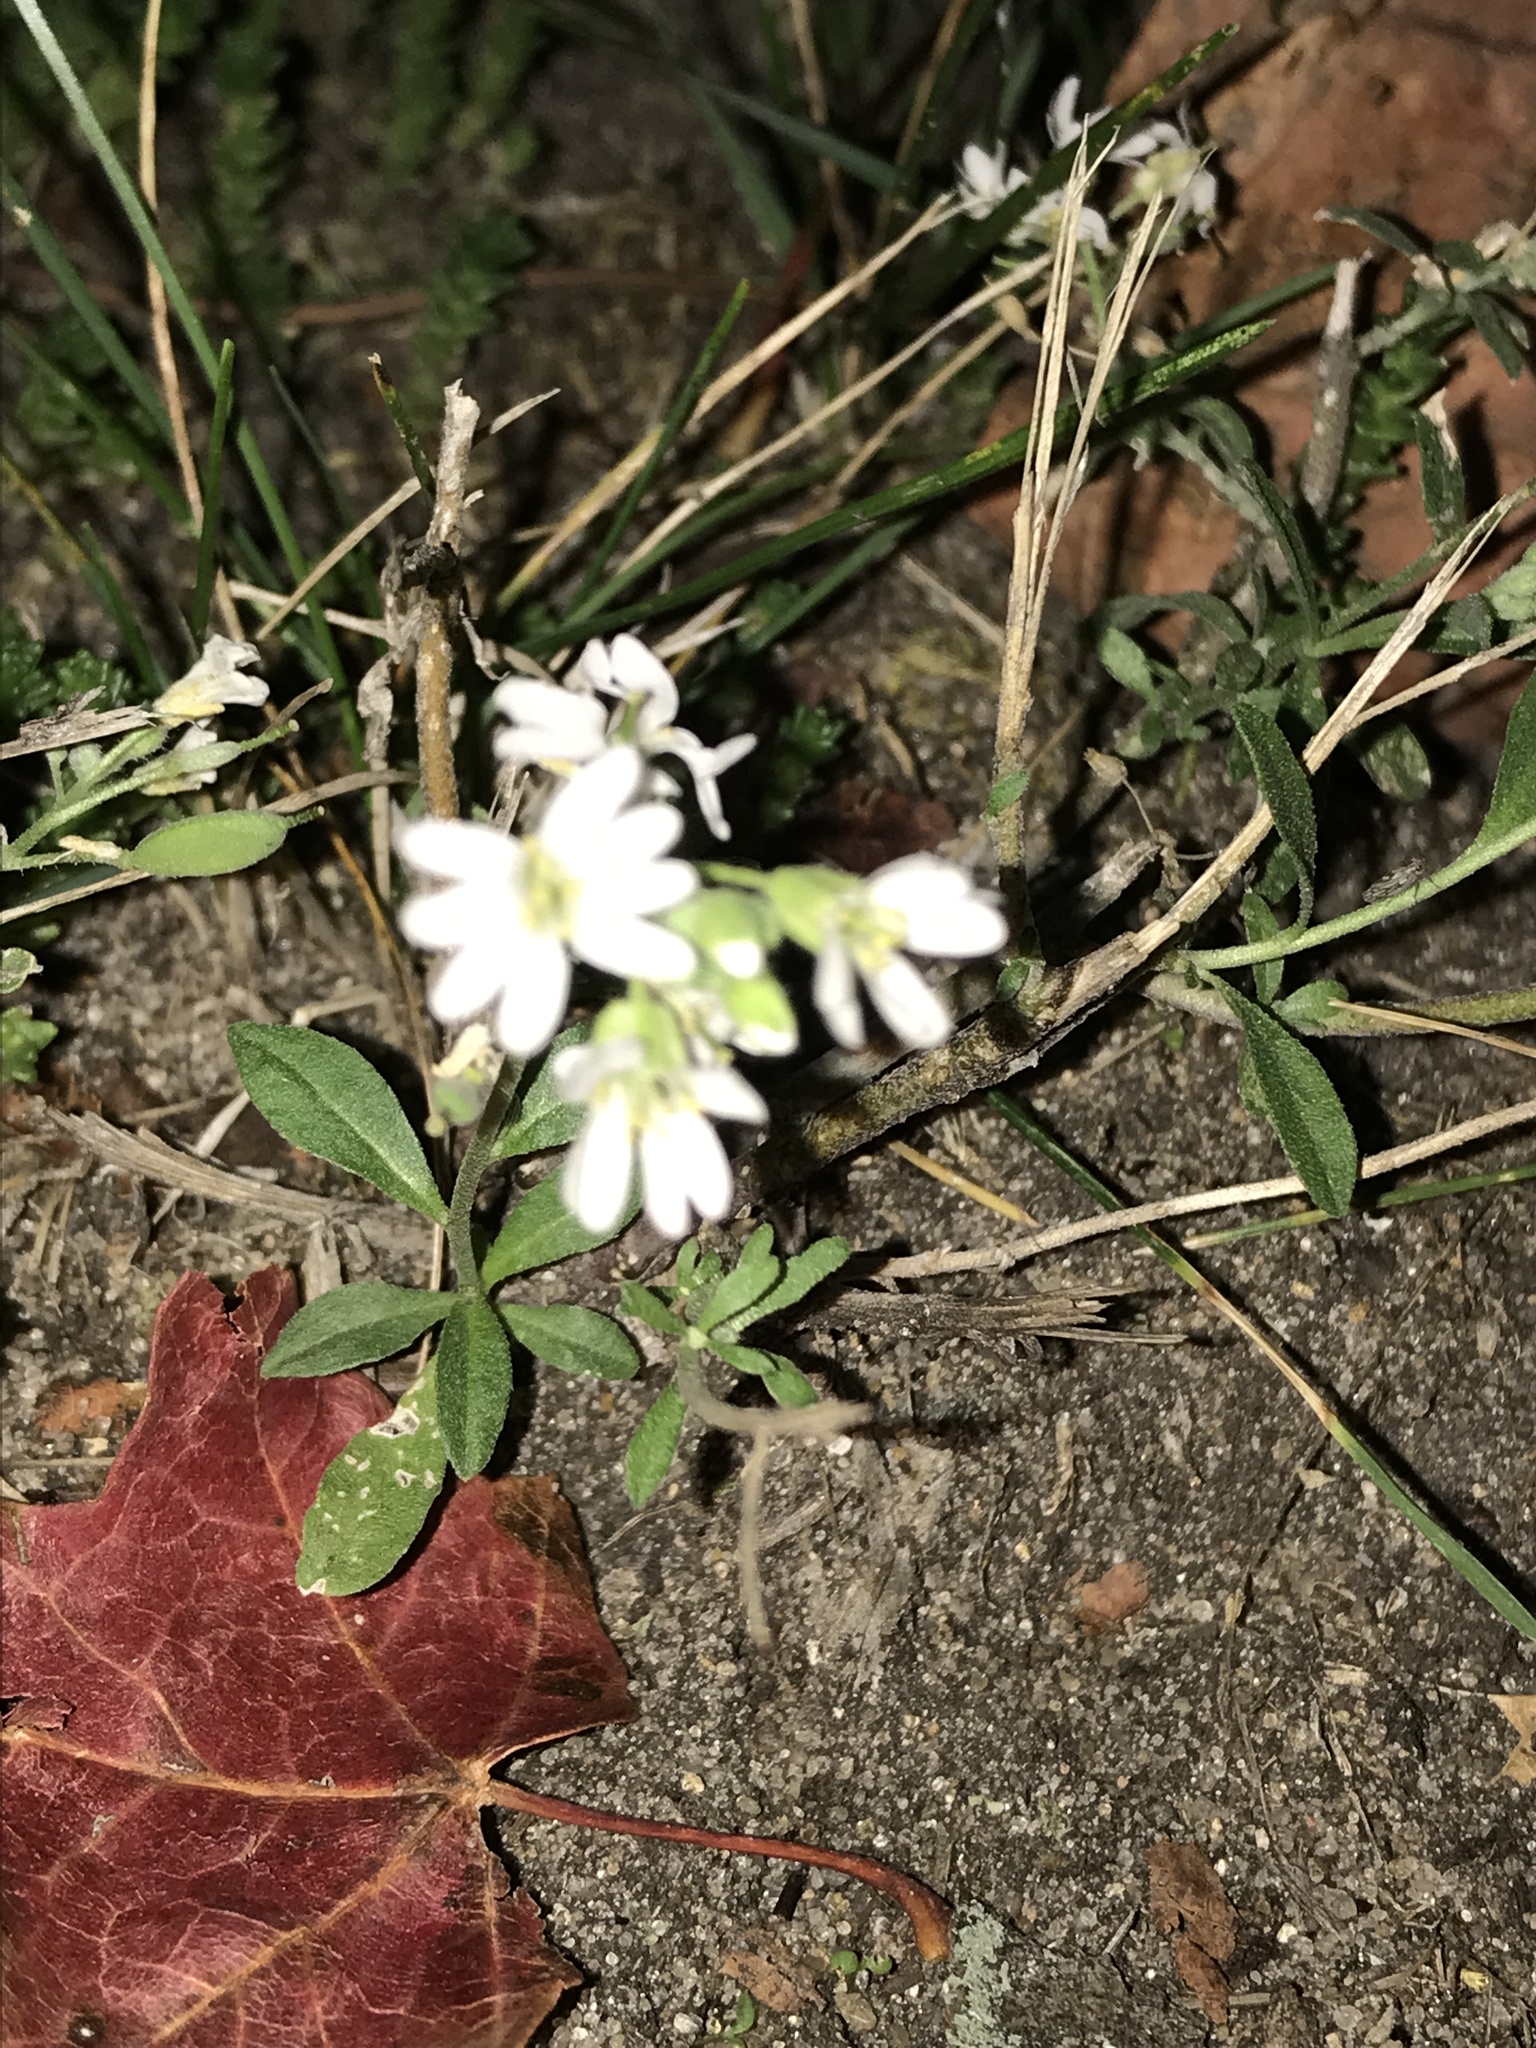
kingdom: Plantae
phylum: Tracheophyta
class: Magnoliopsida
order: Brassicales
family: Brassicaceae
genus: Berteroa
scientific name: Berteroa incana
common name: Hoary alison
